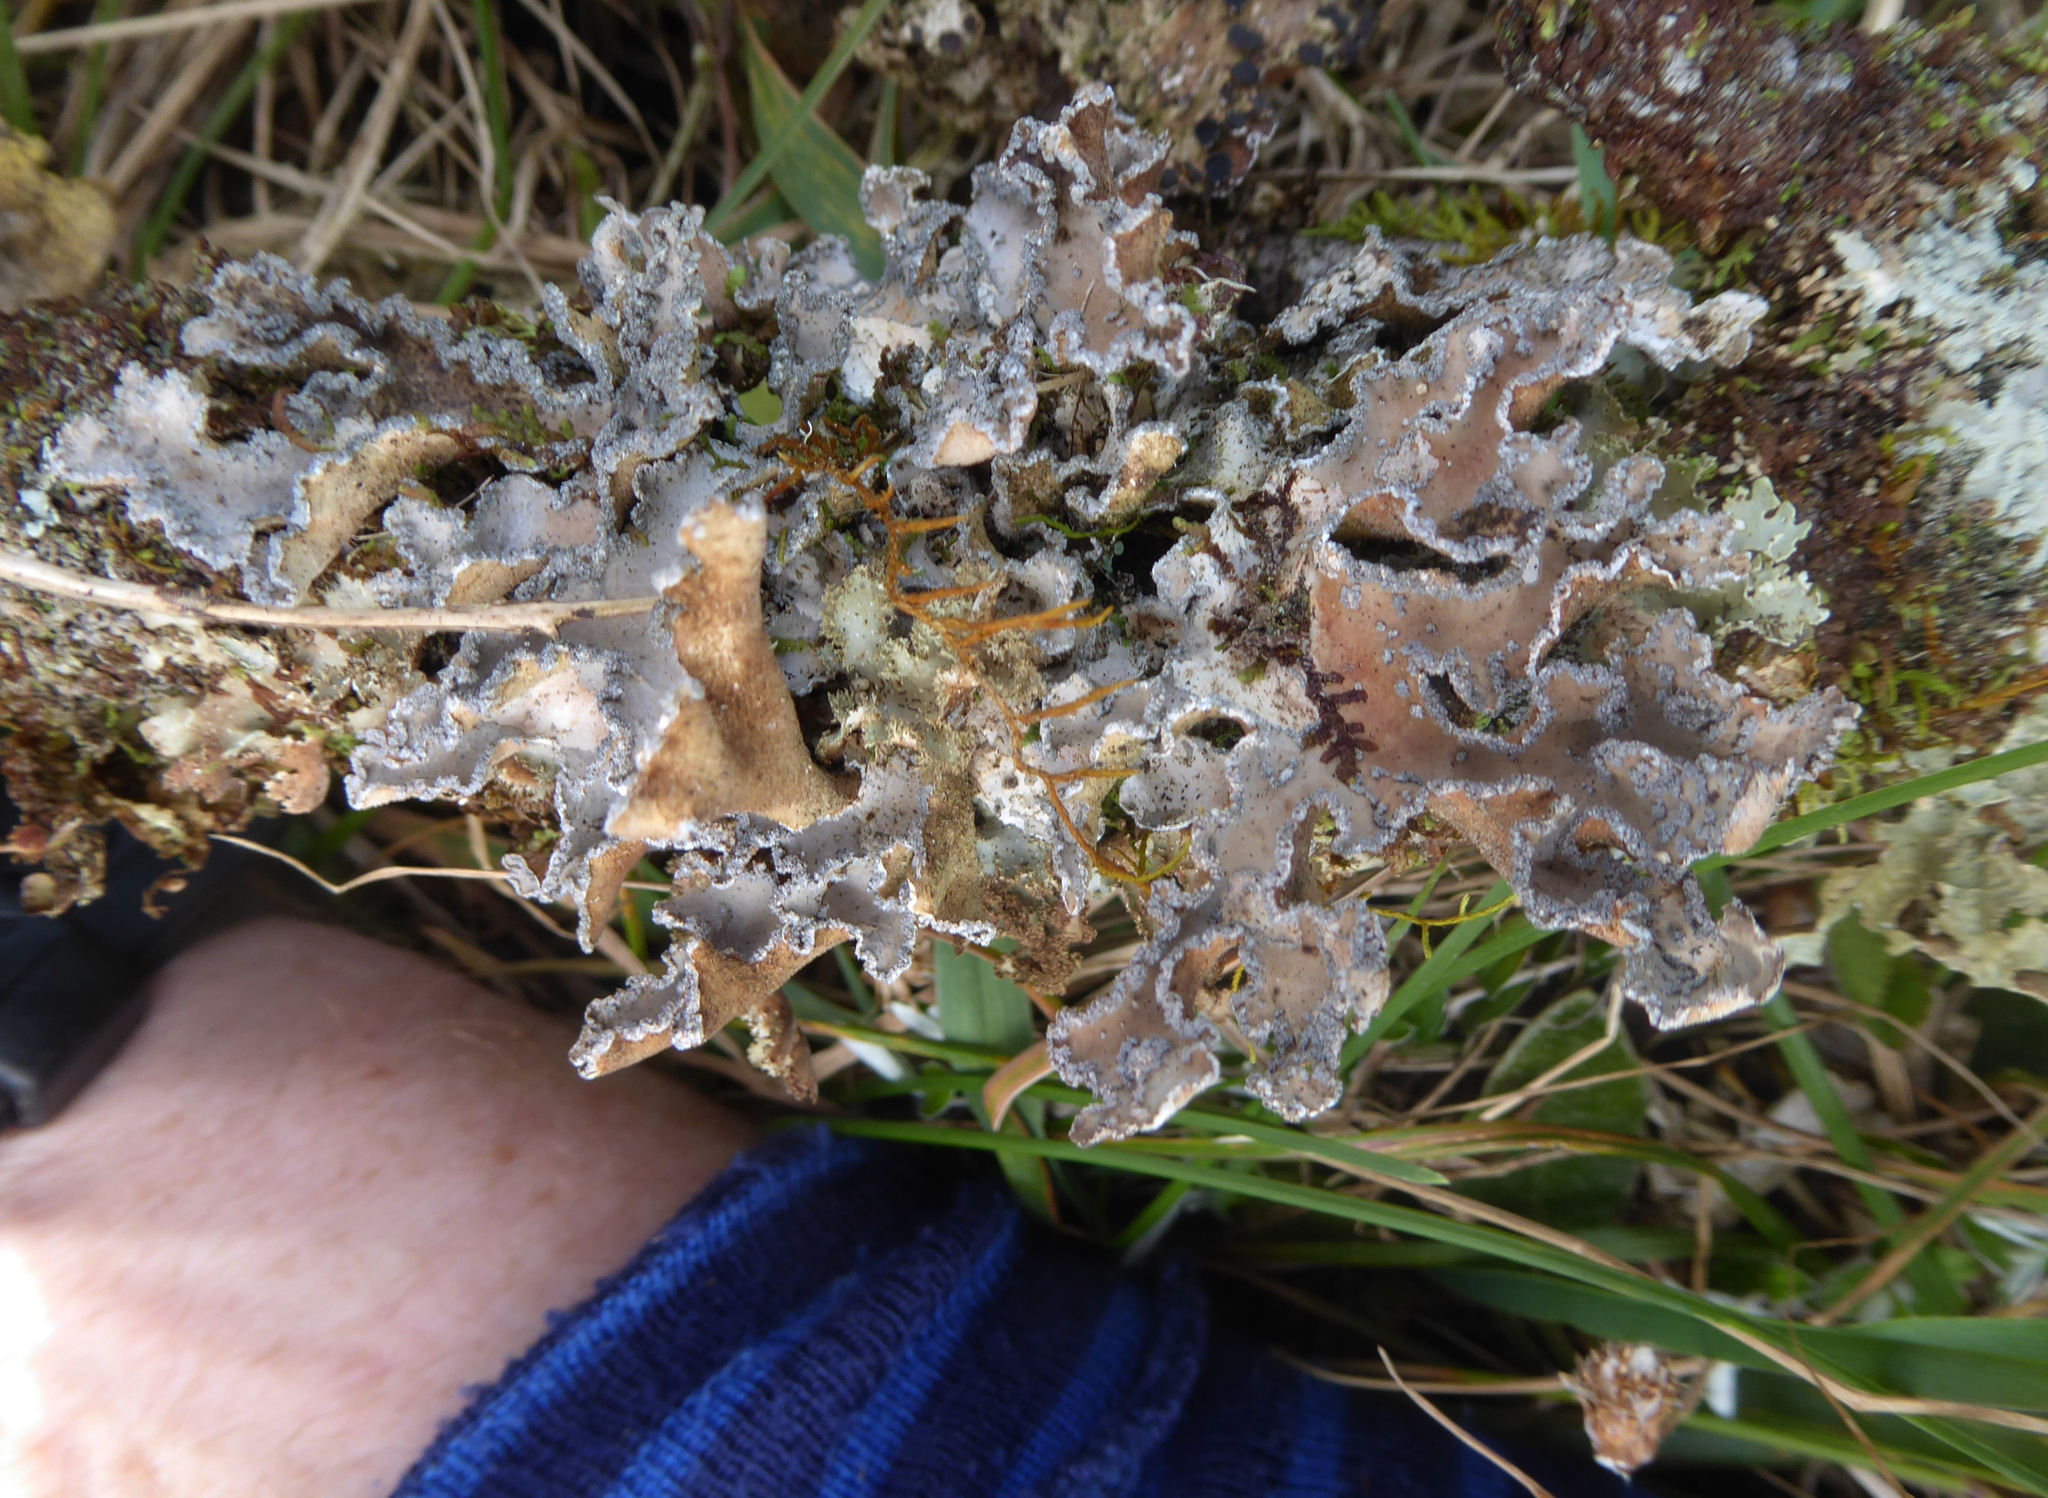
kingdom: Fungi
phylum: Ascomycota
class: Lecanoromycetes
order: Peltigerales
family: Lobariaceae
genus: Pseudocyphellaria
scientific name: Pseudocyphellaria intricata
